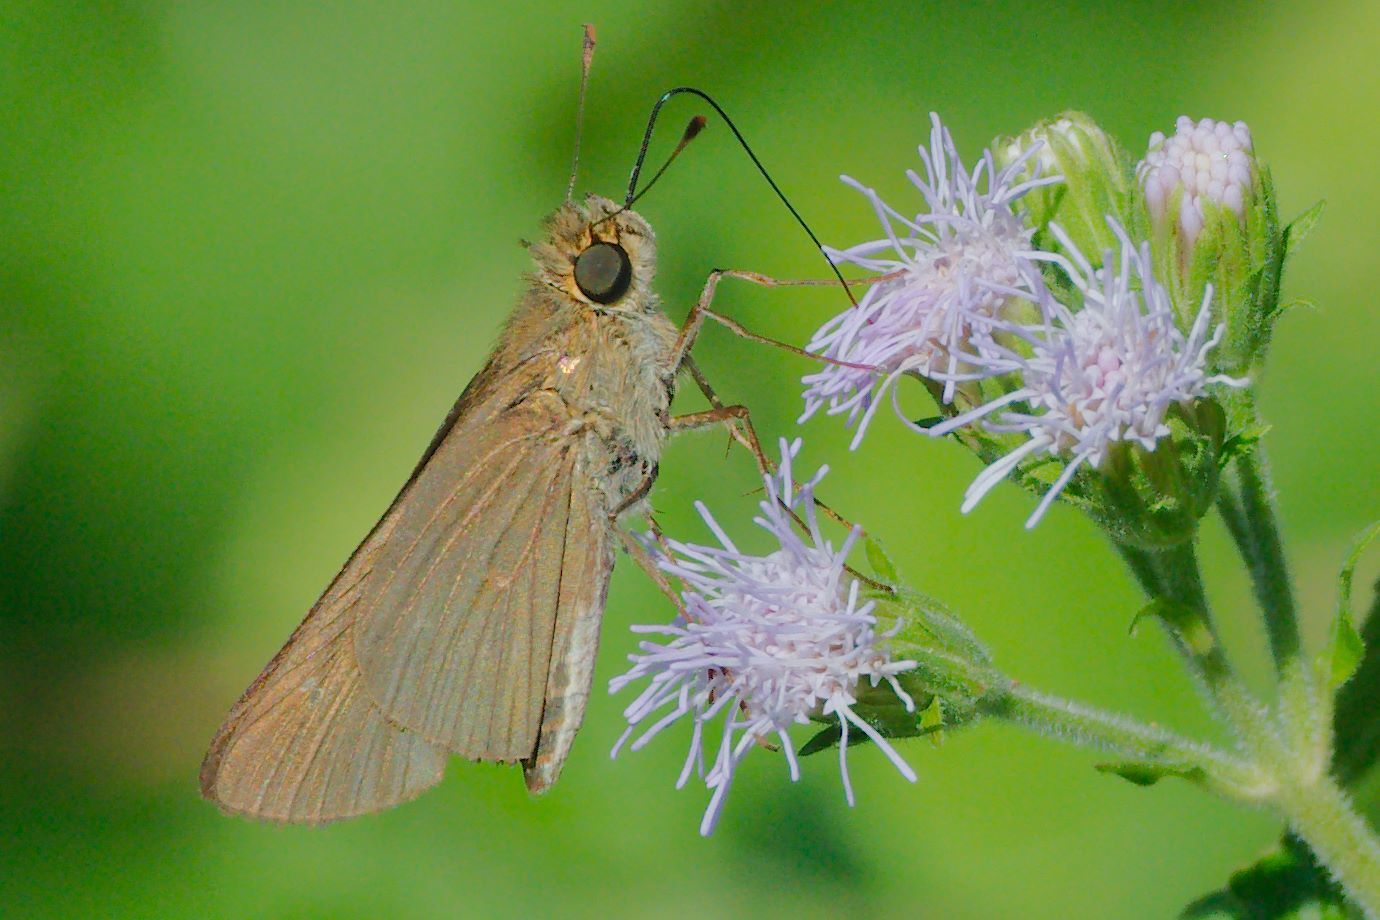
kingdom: Animalia
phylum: Arthropoda
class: Insecta
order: Lepidoptera
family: Hesperiidae
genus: Panoquina
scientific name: Panoquina ocola
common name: Ocola skipper
